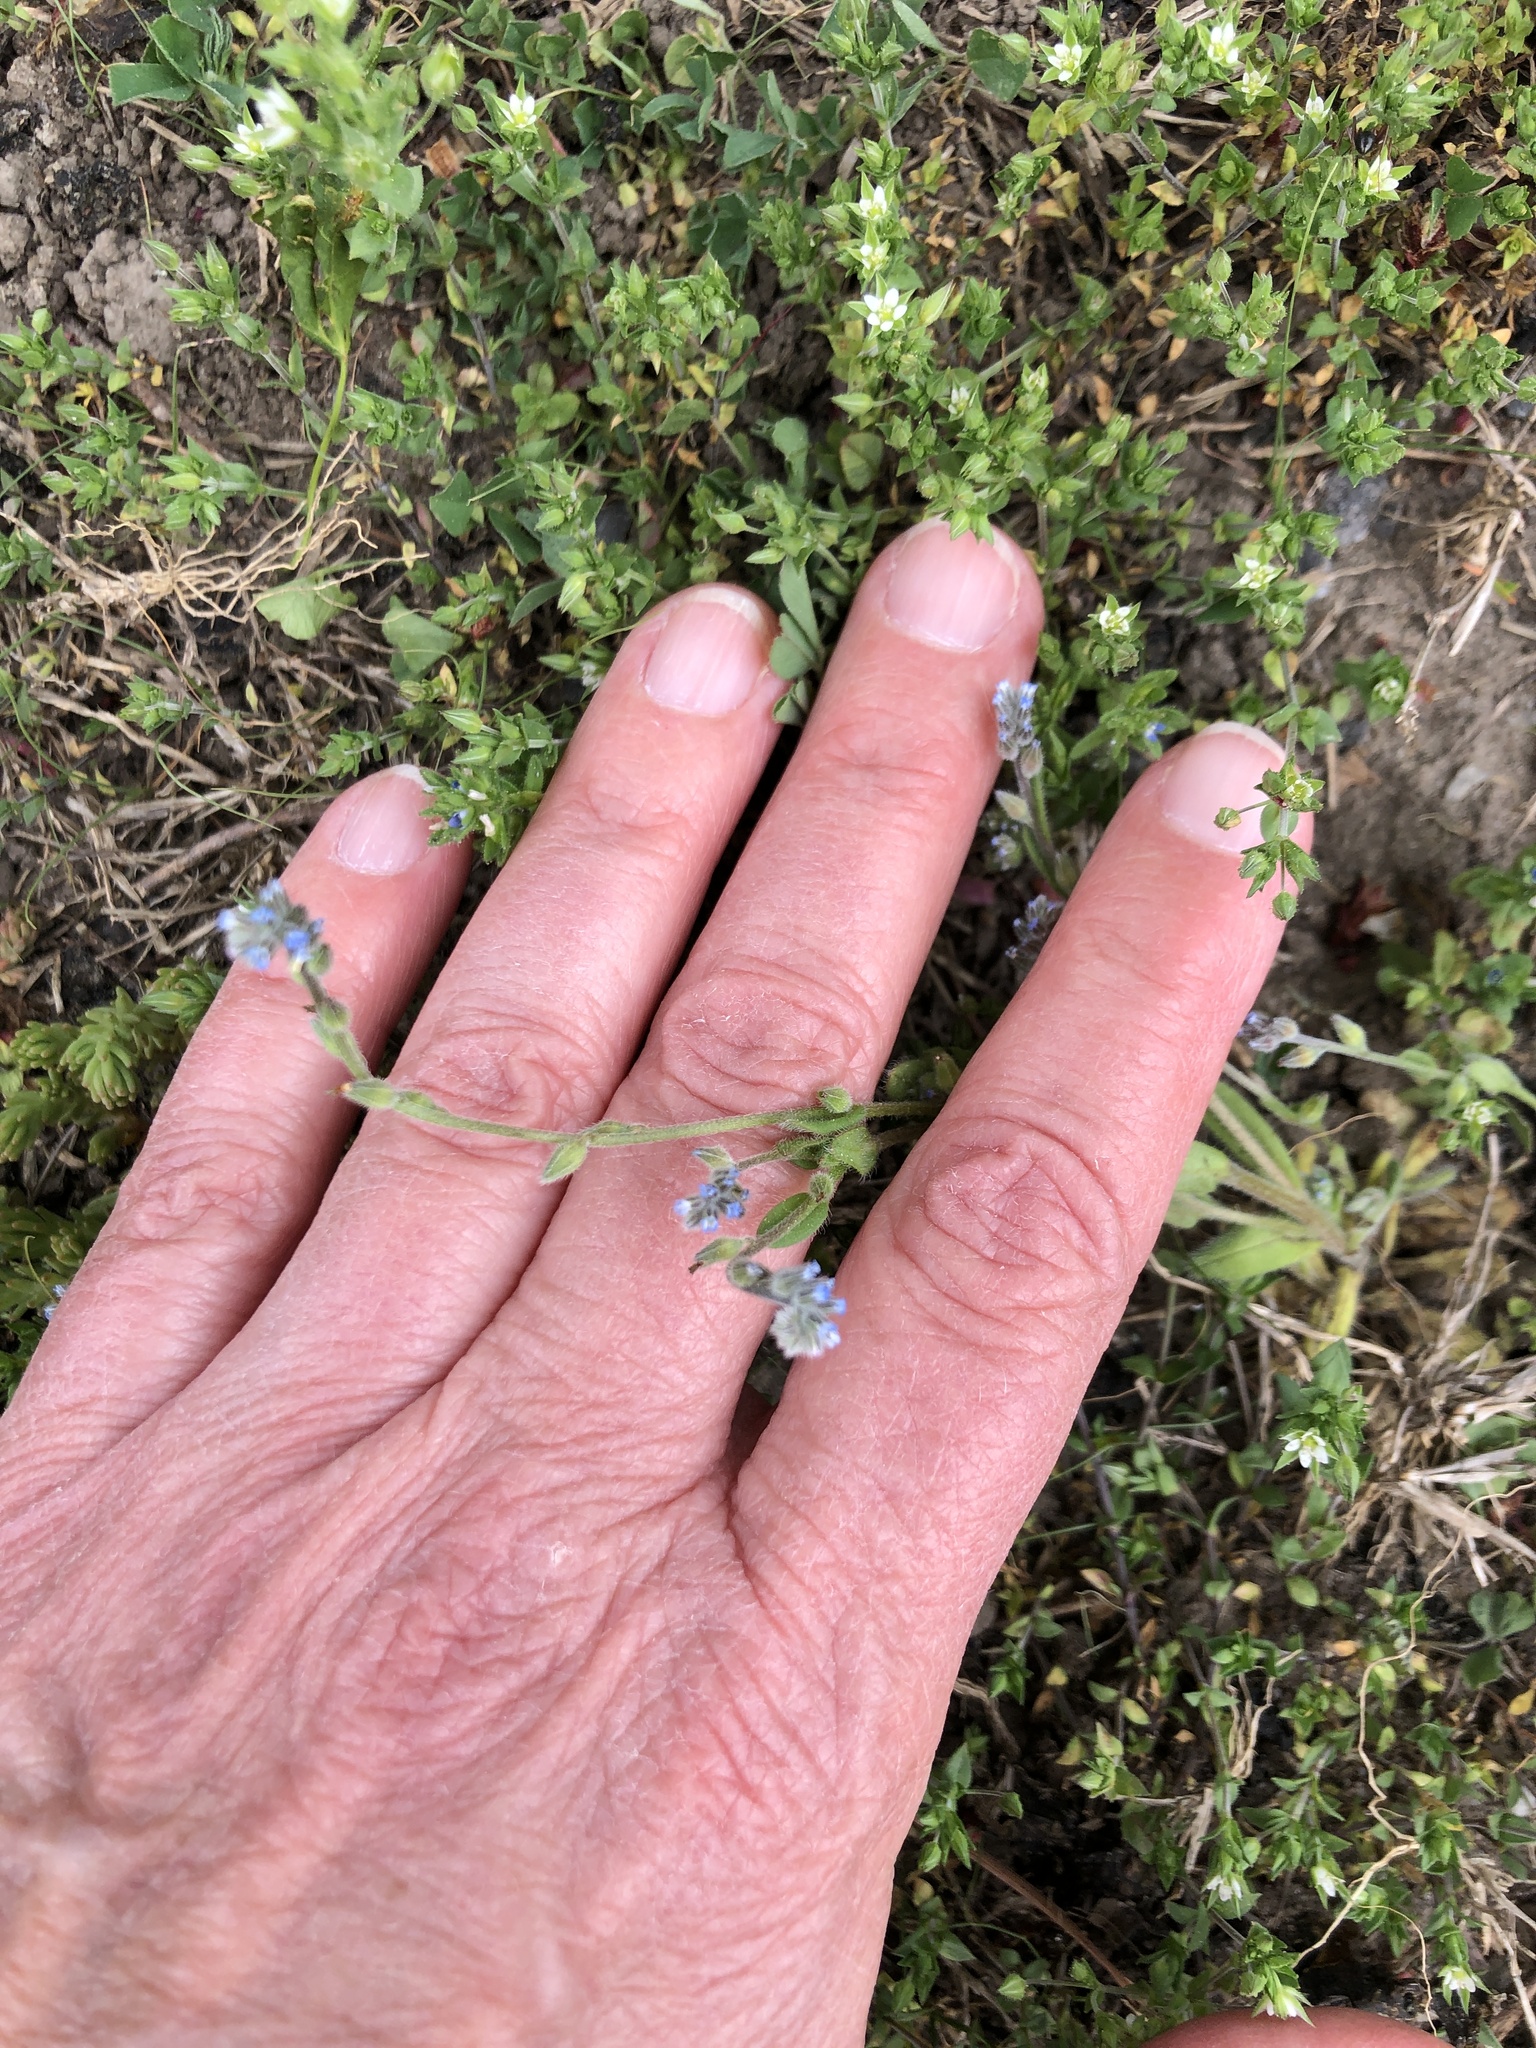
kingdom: Plantae
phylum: Tracheophyta
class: Magnoliopsida
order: Boraginales
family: Boraginaceae
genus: Myosotis
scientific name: Myosotis stricta
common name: Strict forget-me-not
